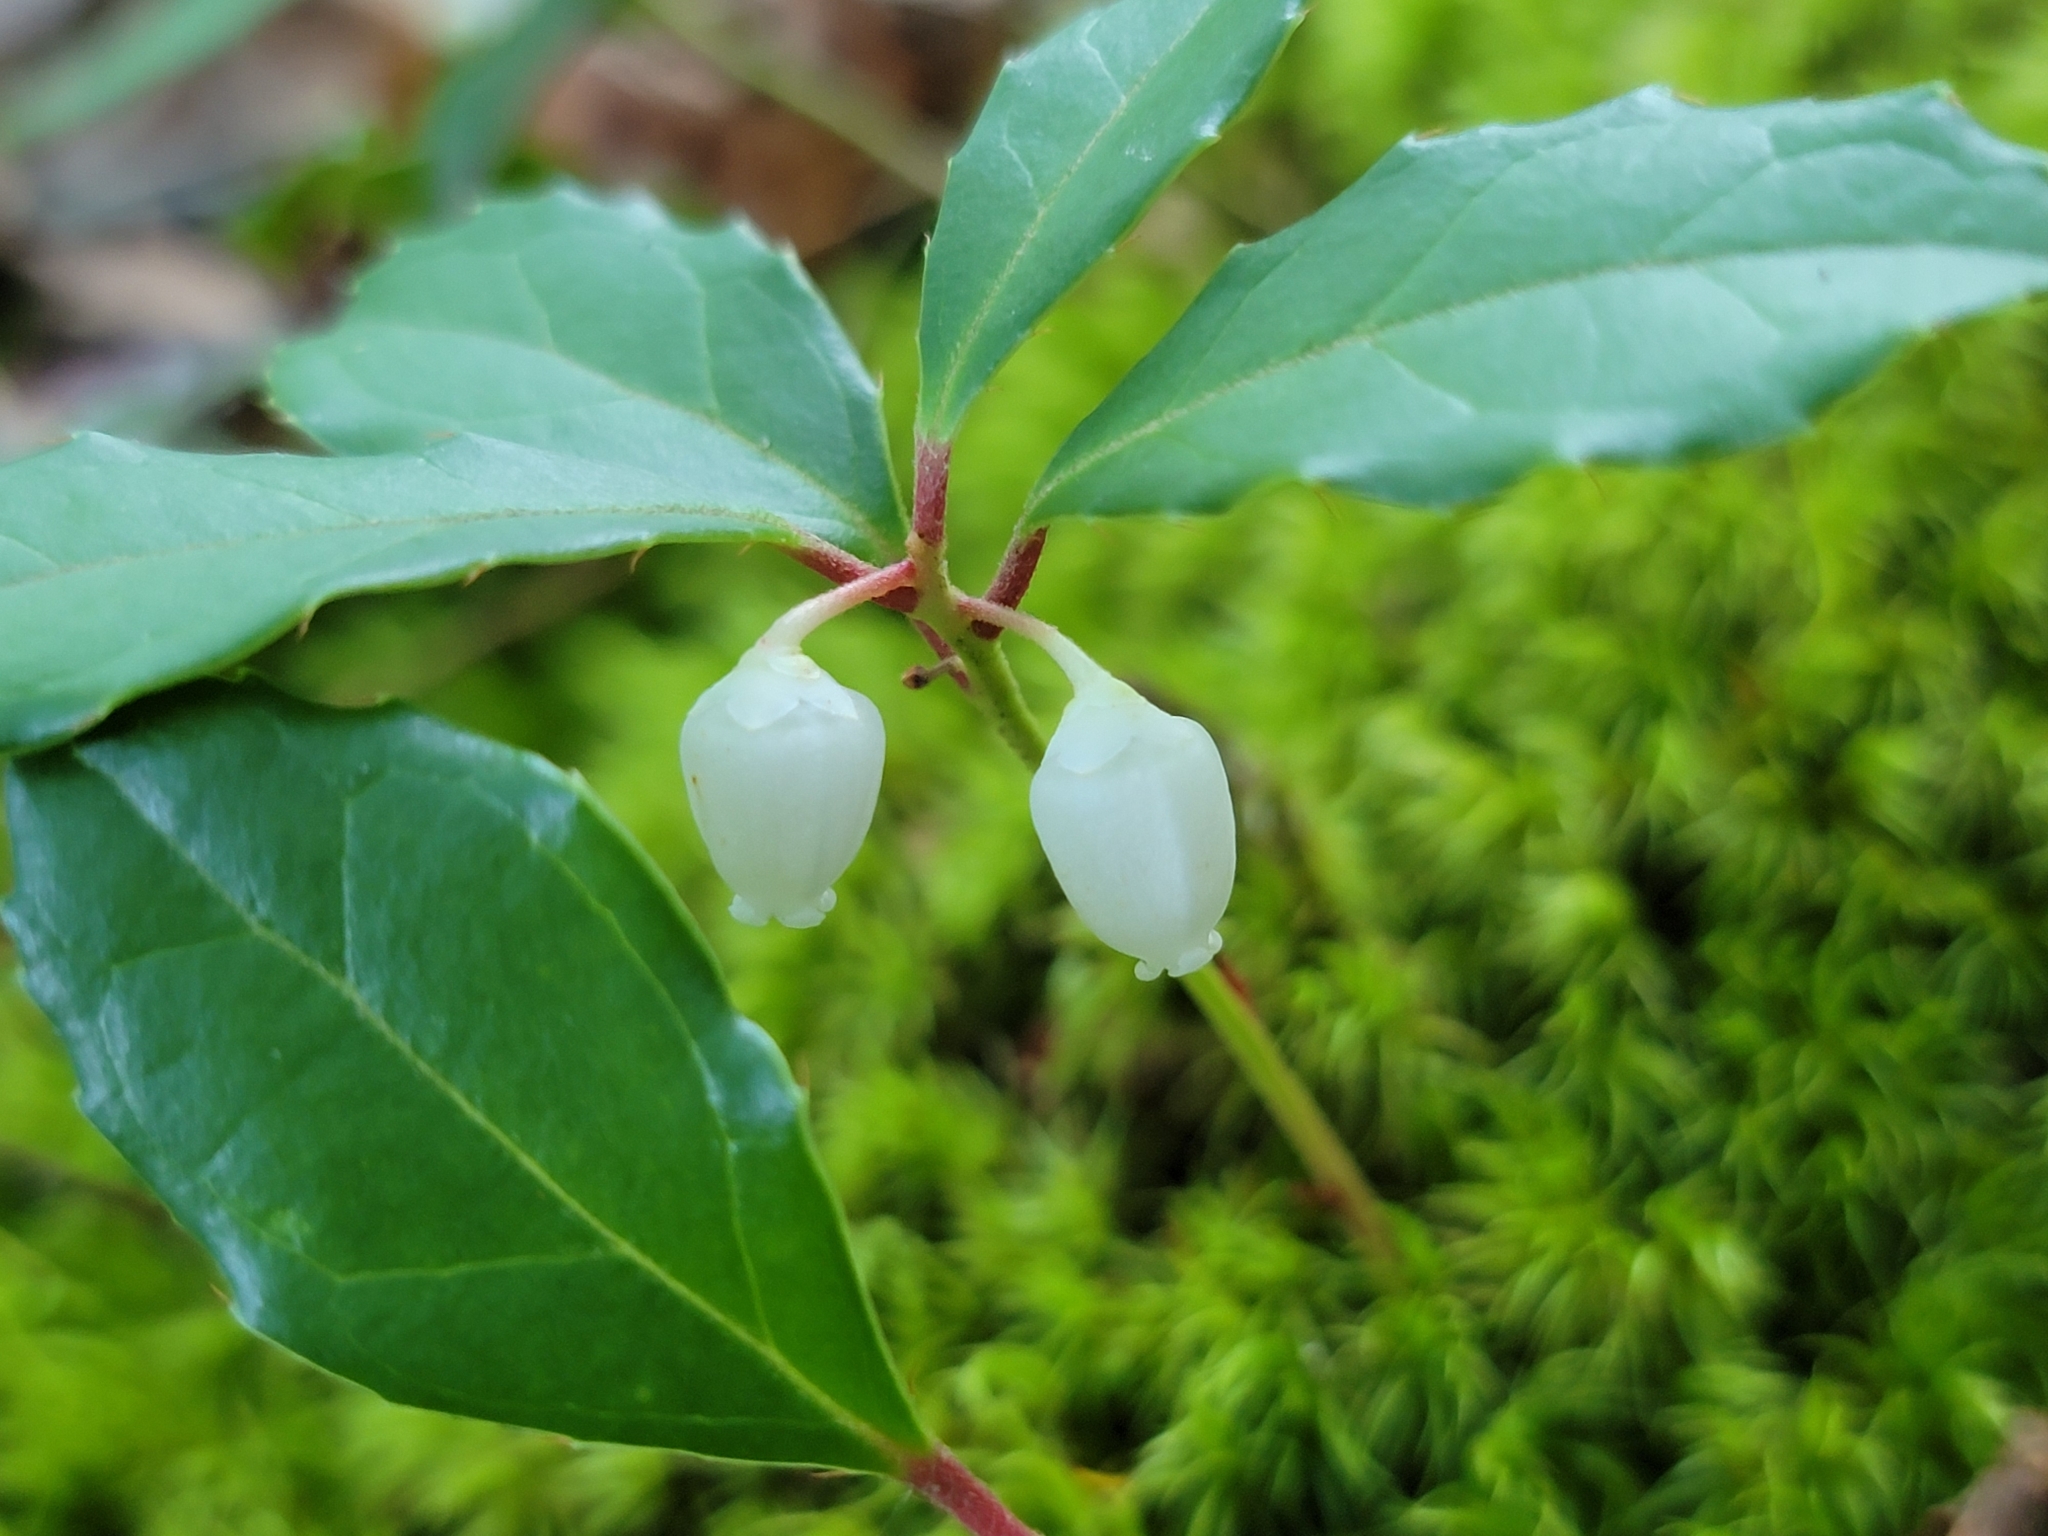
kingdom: Plantae
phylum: Tracheophyta
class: Magnoliopsida
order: Ericales
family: Ericaceae
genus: Gaultheria
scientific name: Gaultheria procumbens
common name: Checkerberry
